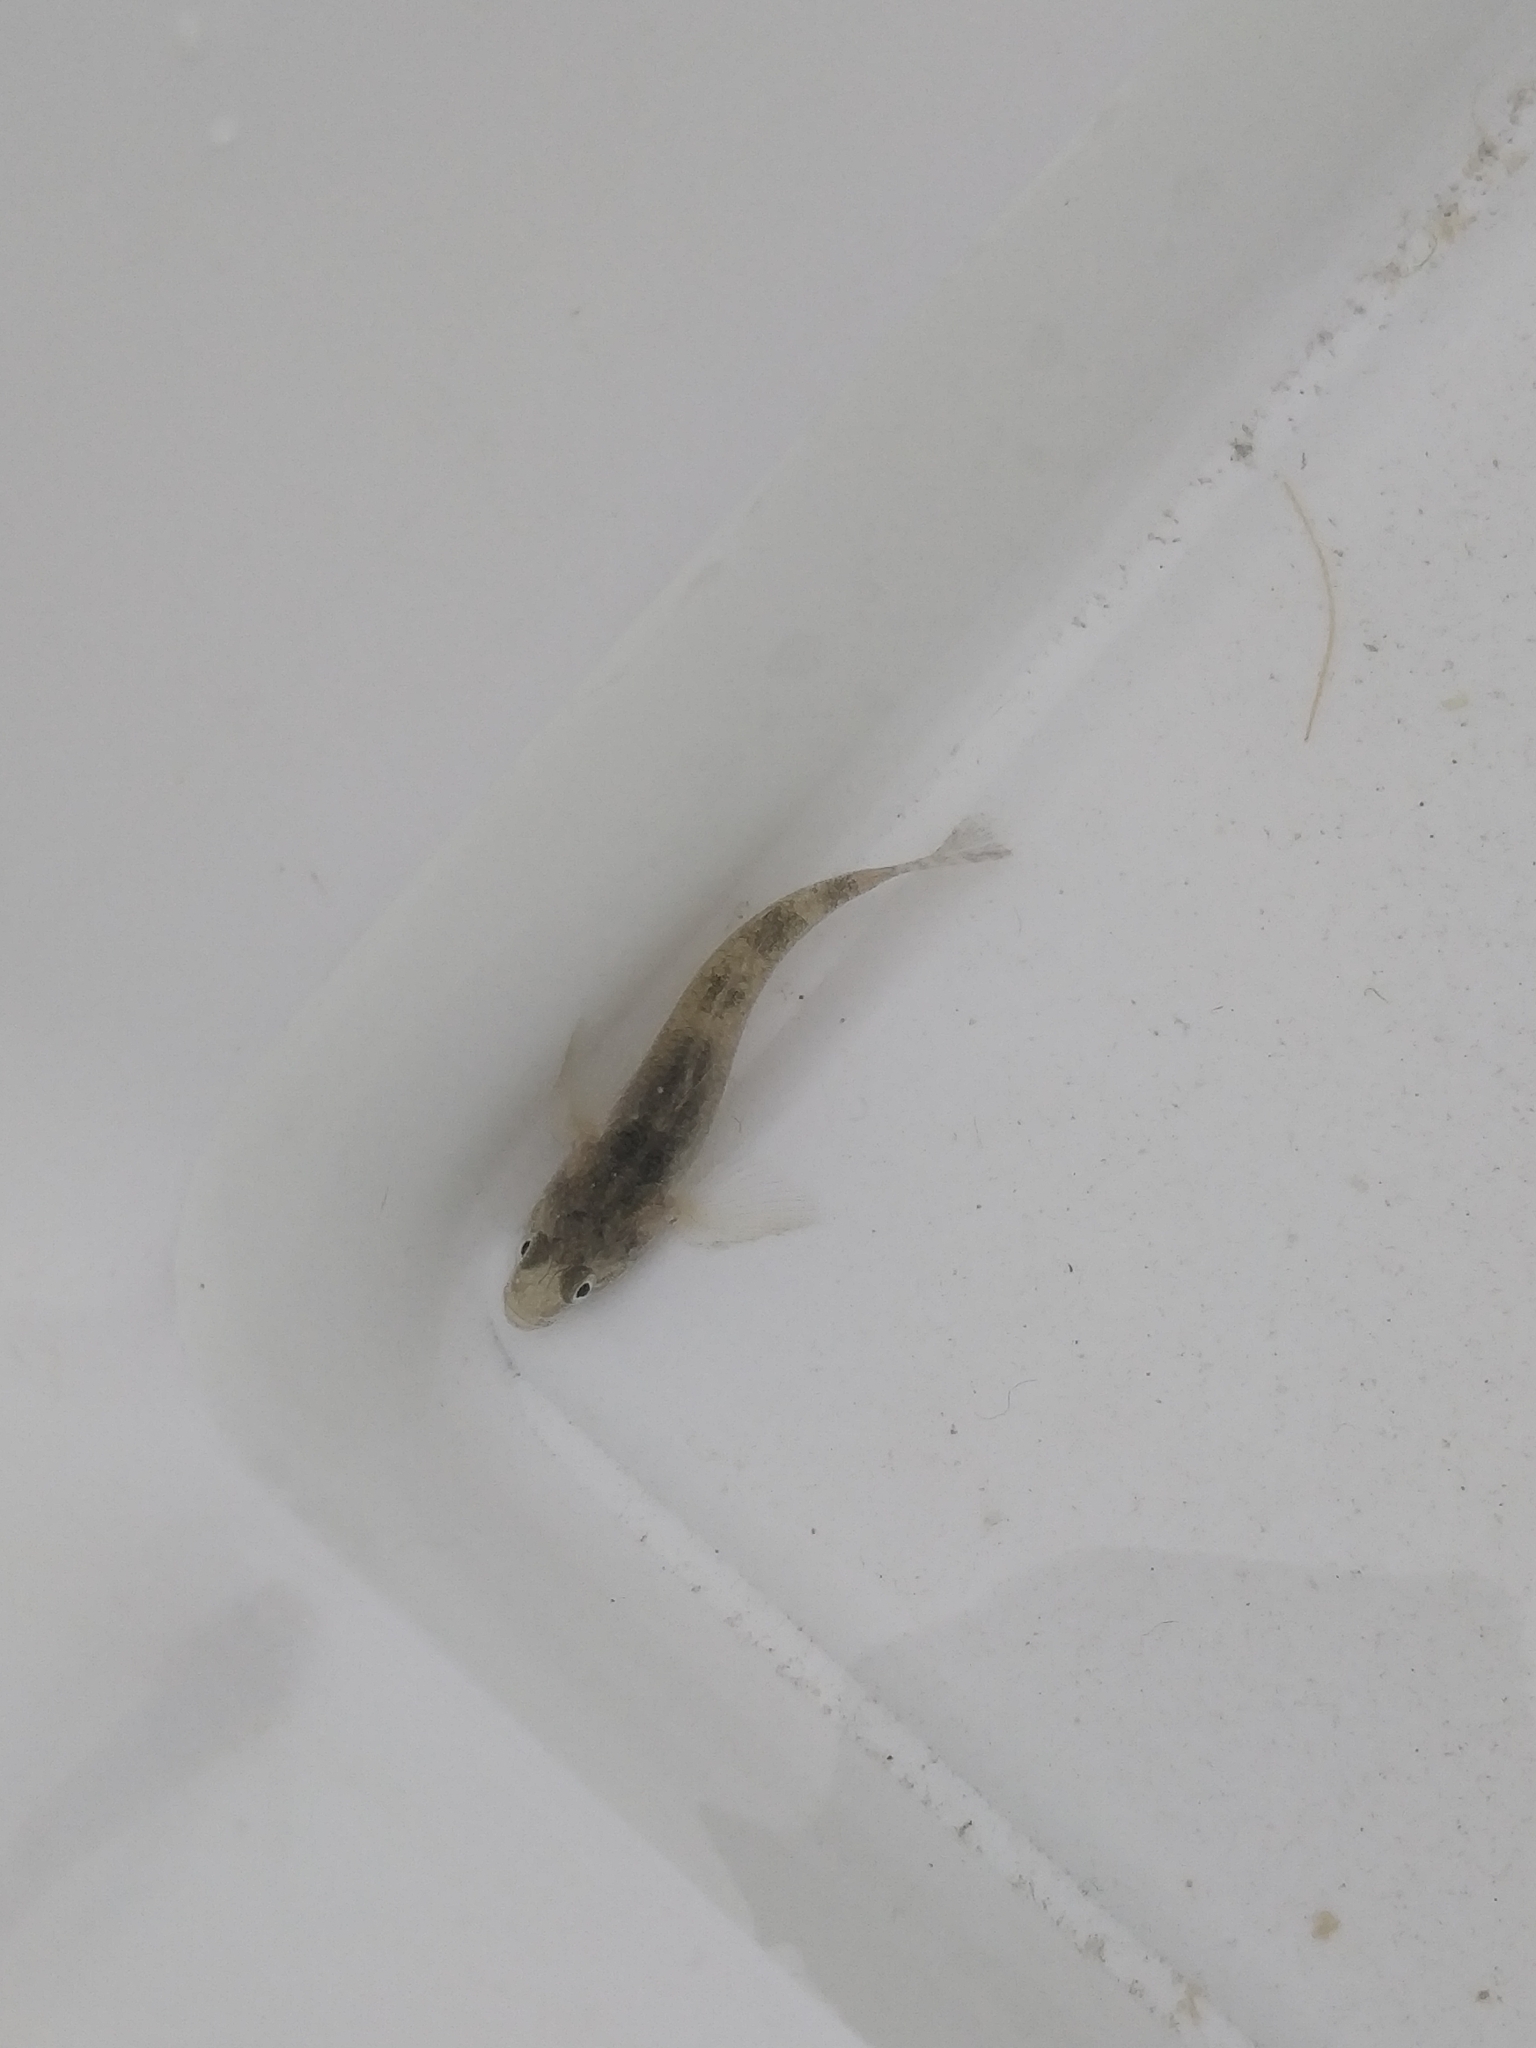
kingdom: Animalia
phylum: Chordata
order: Perciformes
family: Eleotridae
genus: Gobiomorphus
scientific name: Gobiomorphus cotidianus
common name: Common bully
